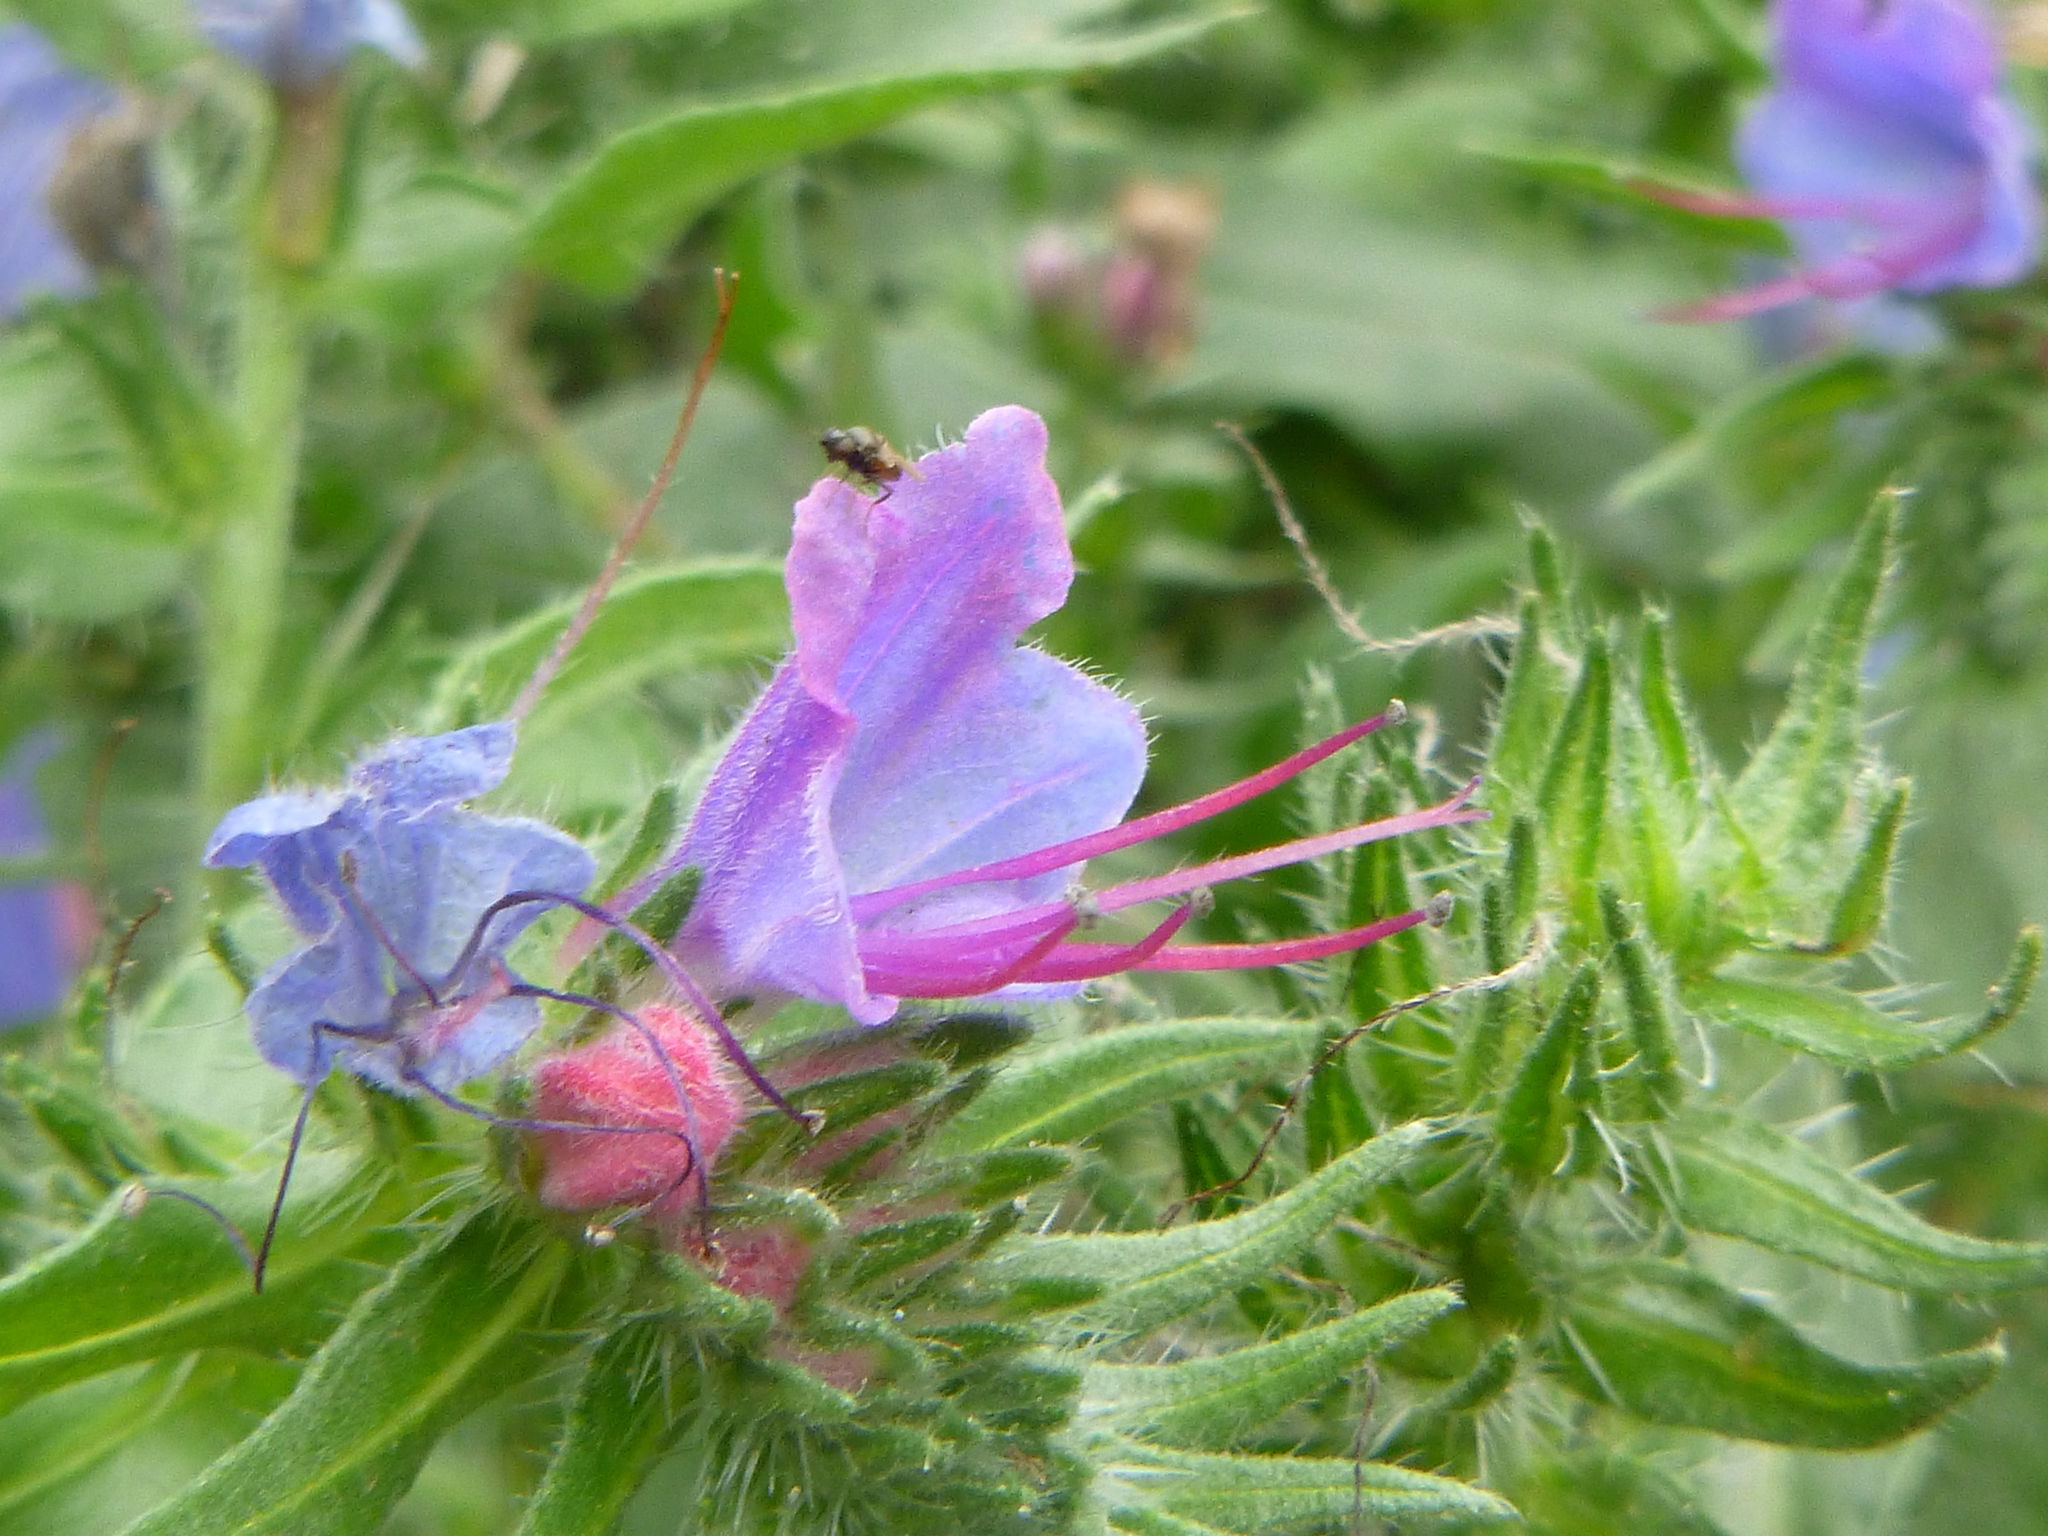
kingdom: Plantae
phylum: Tracheophyta
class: Magnoliopsida
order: Boraginales
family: Boraginaceae
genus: Echium
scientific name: Echium vulgare
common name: Common viper's bugloss
